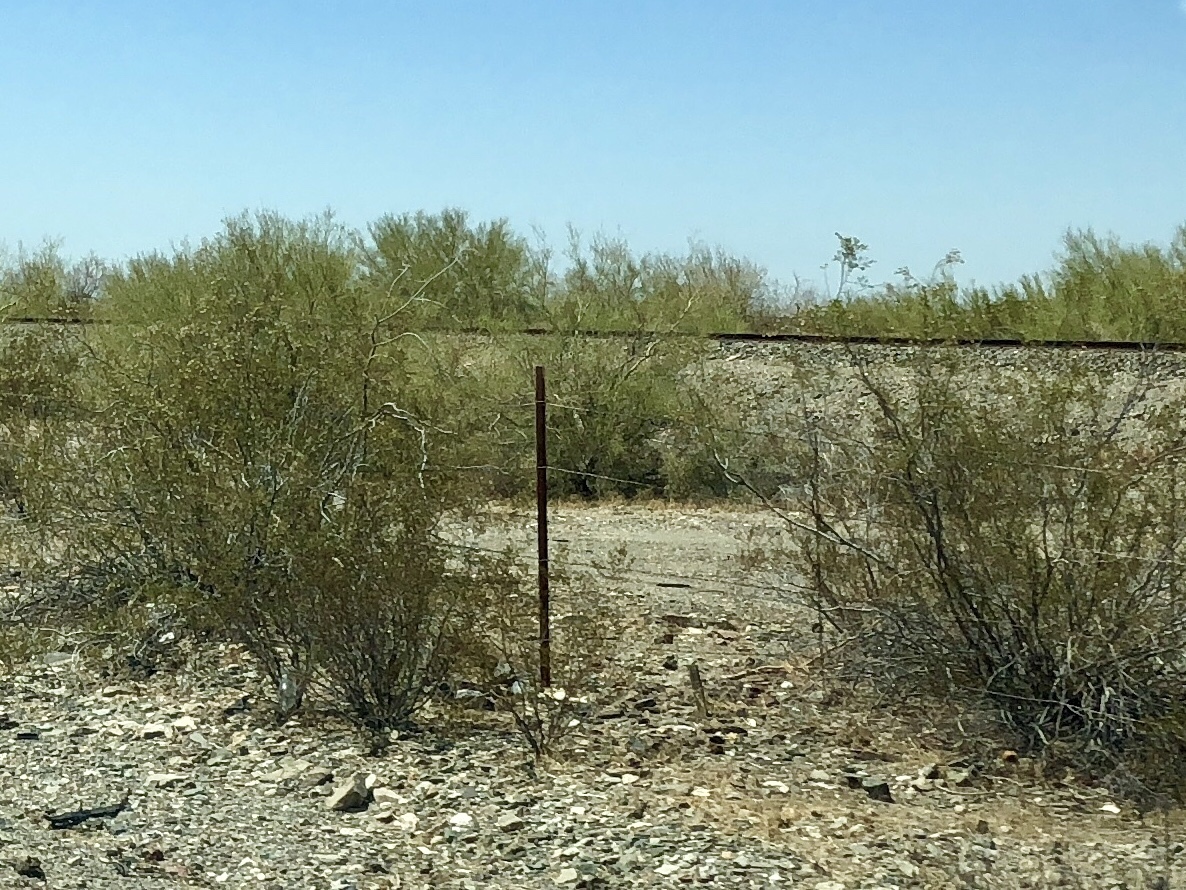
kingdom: Plantae
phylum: Tracheophyta
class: Magnoliopsida
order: Zygophyllales
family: Zygophyllaceae
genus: Larrea
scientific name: Larrea tridentata
